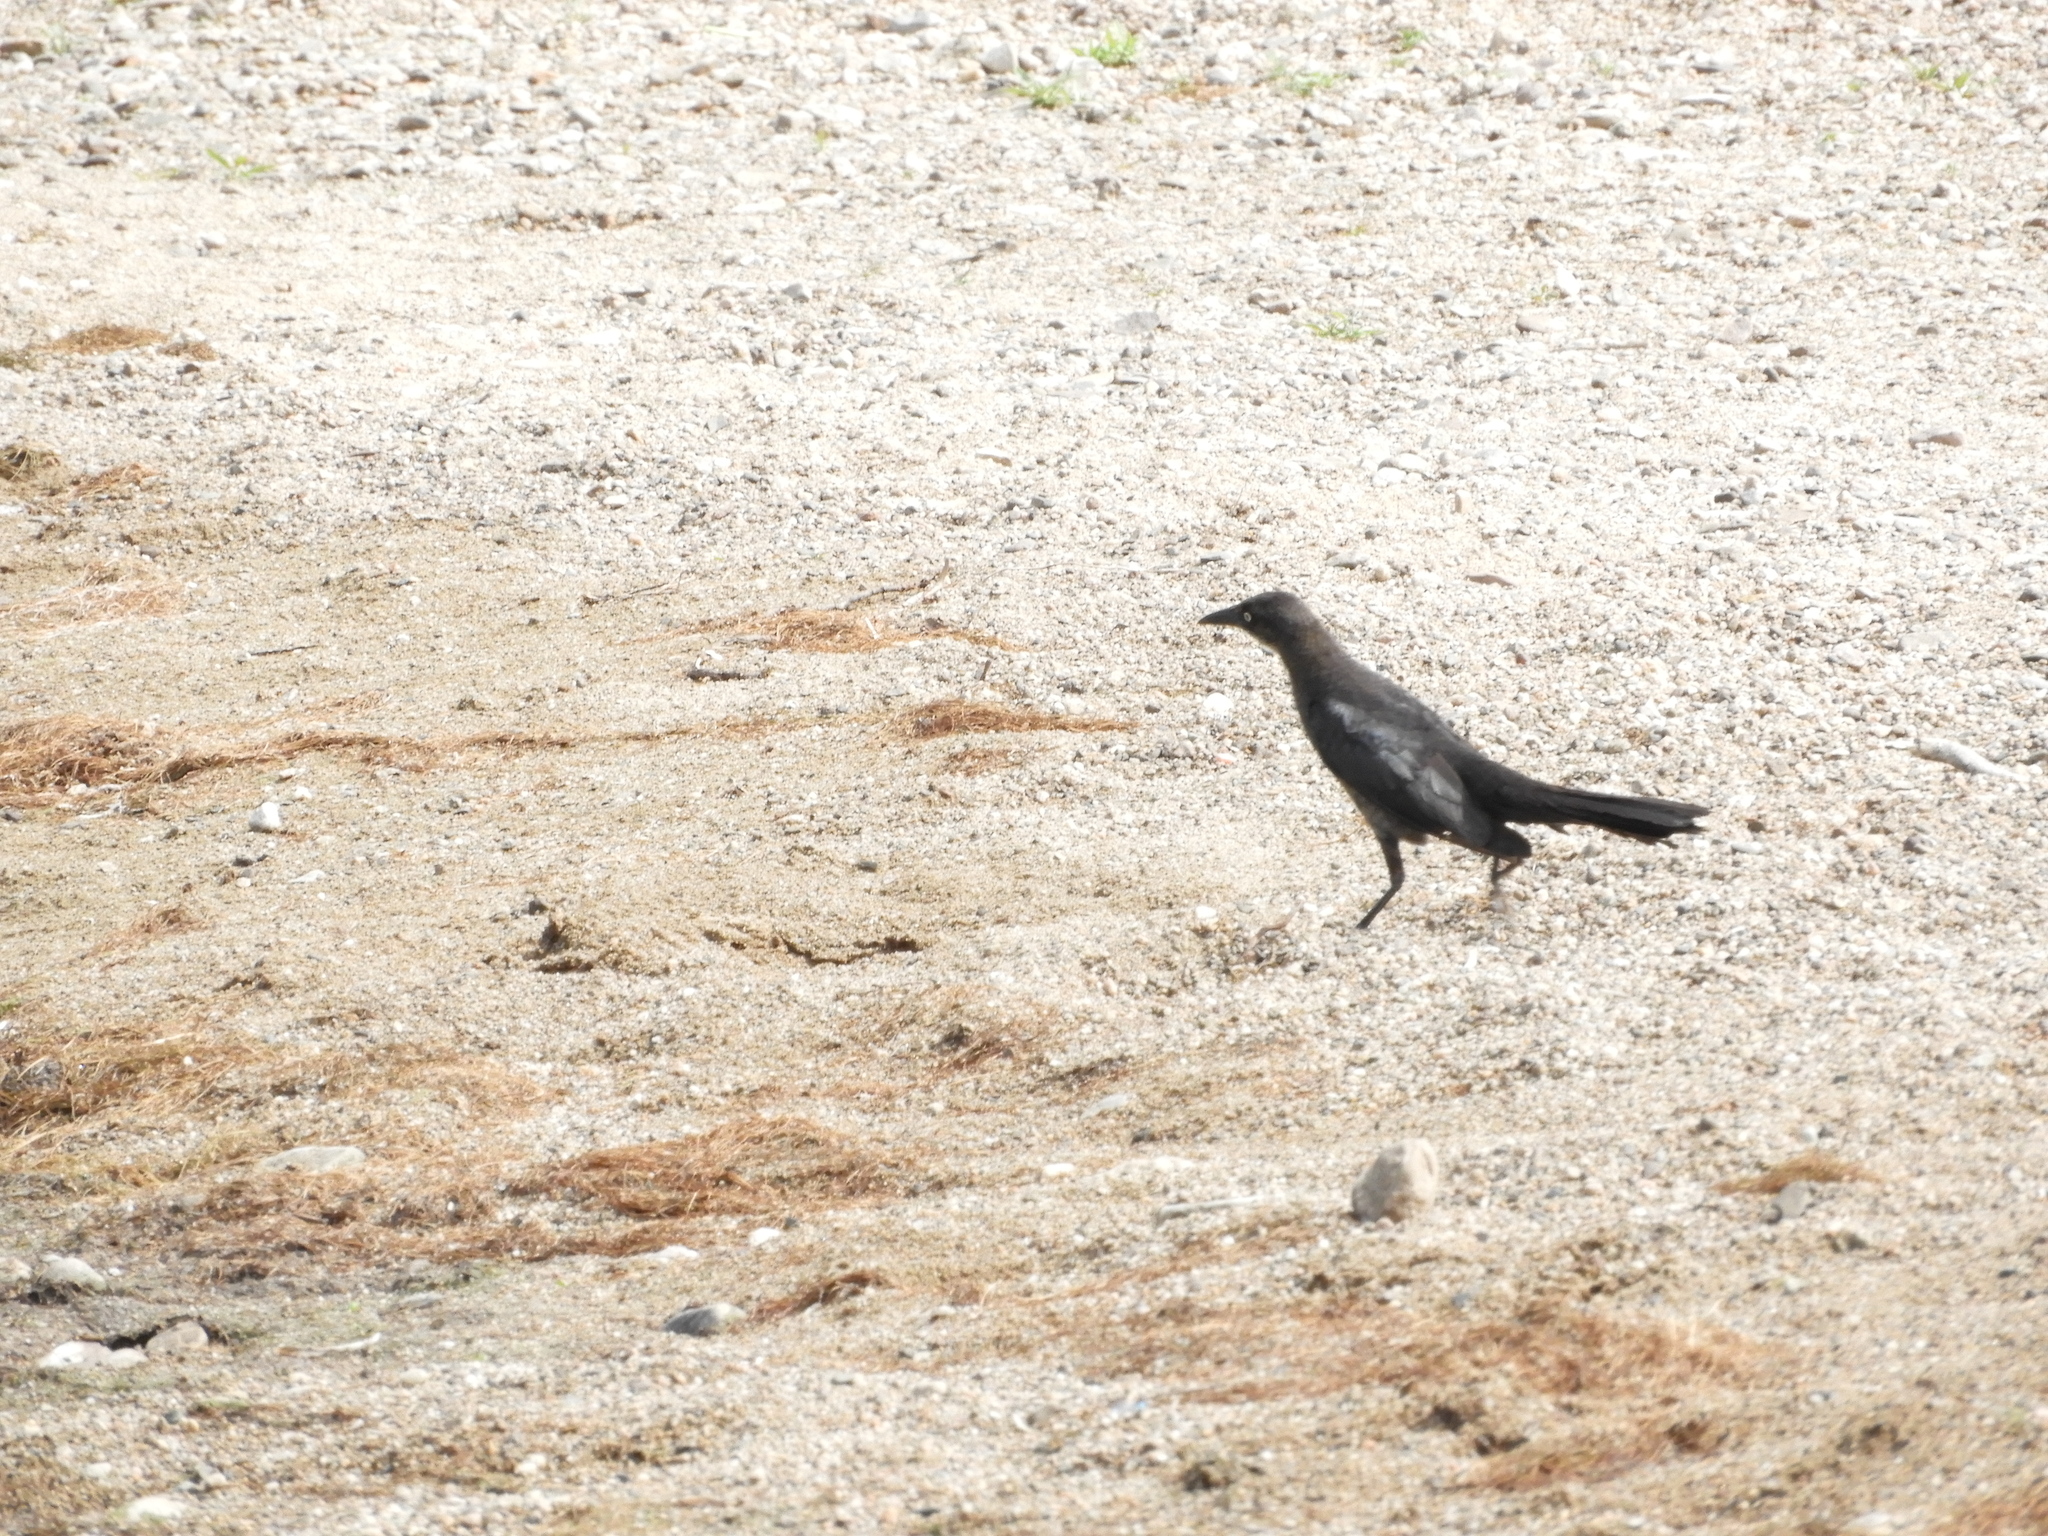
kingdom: Animalia
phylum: Chordata
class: Aves
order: Passeriformes
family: Icteridae
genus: Quiscalus
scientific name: Quiscalus mexicanus
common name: Great-tailed grackle
